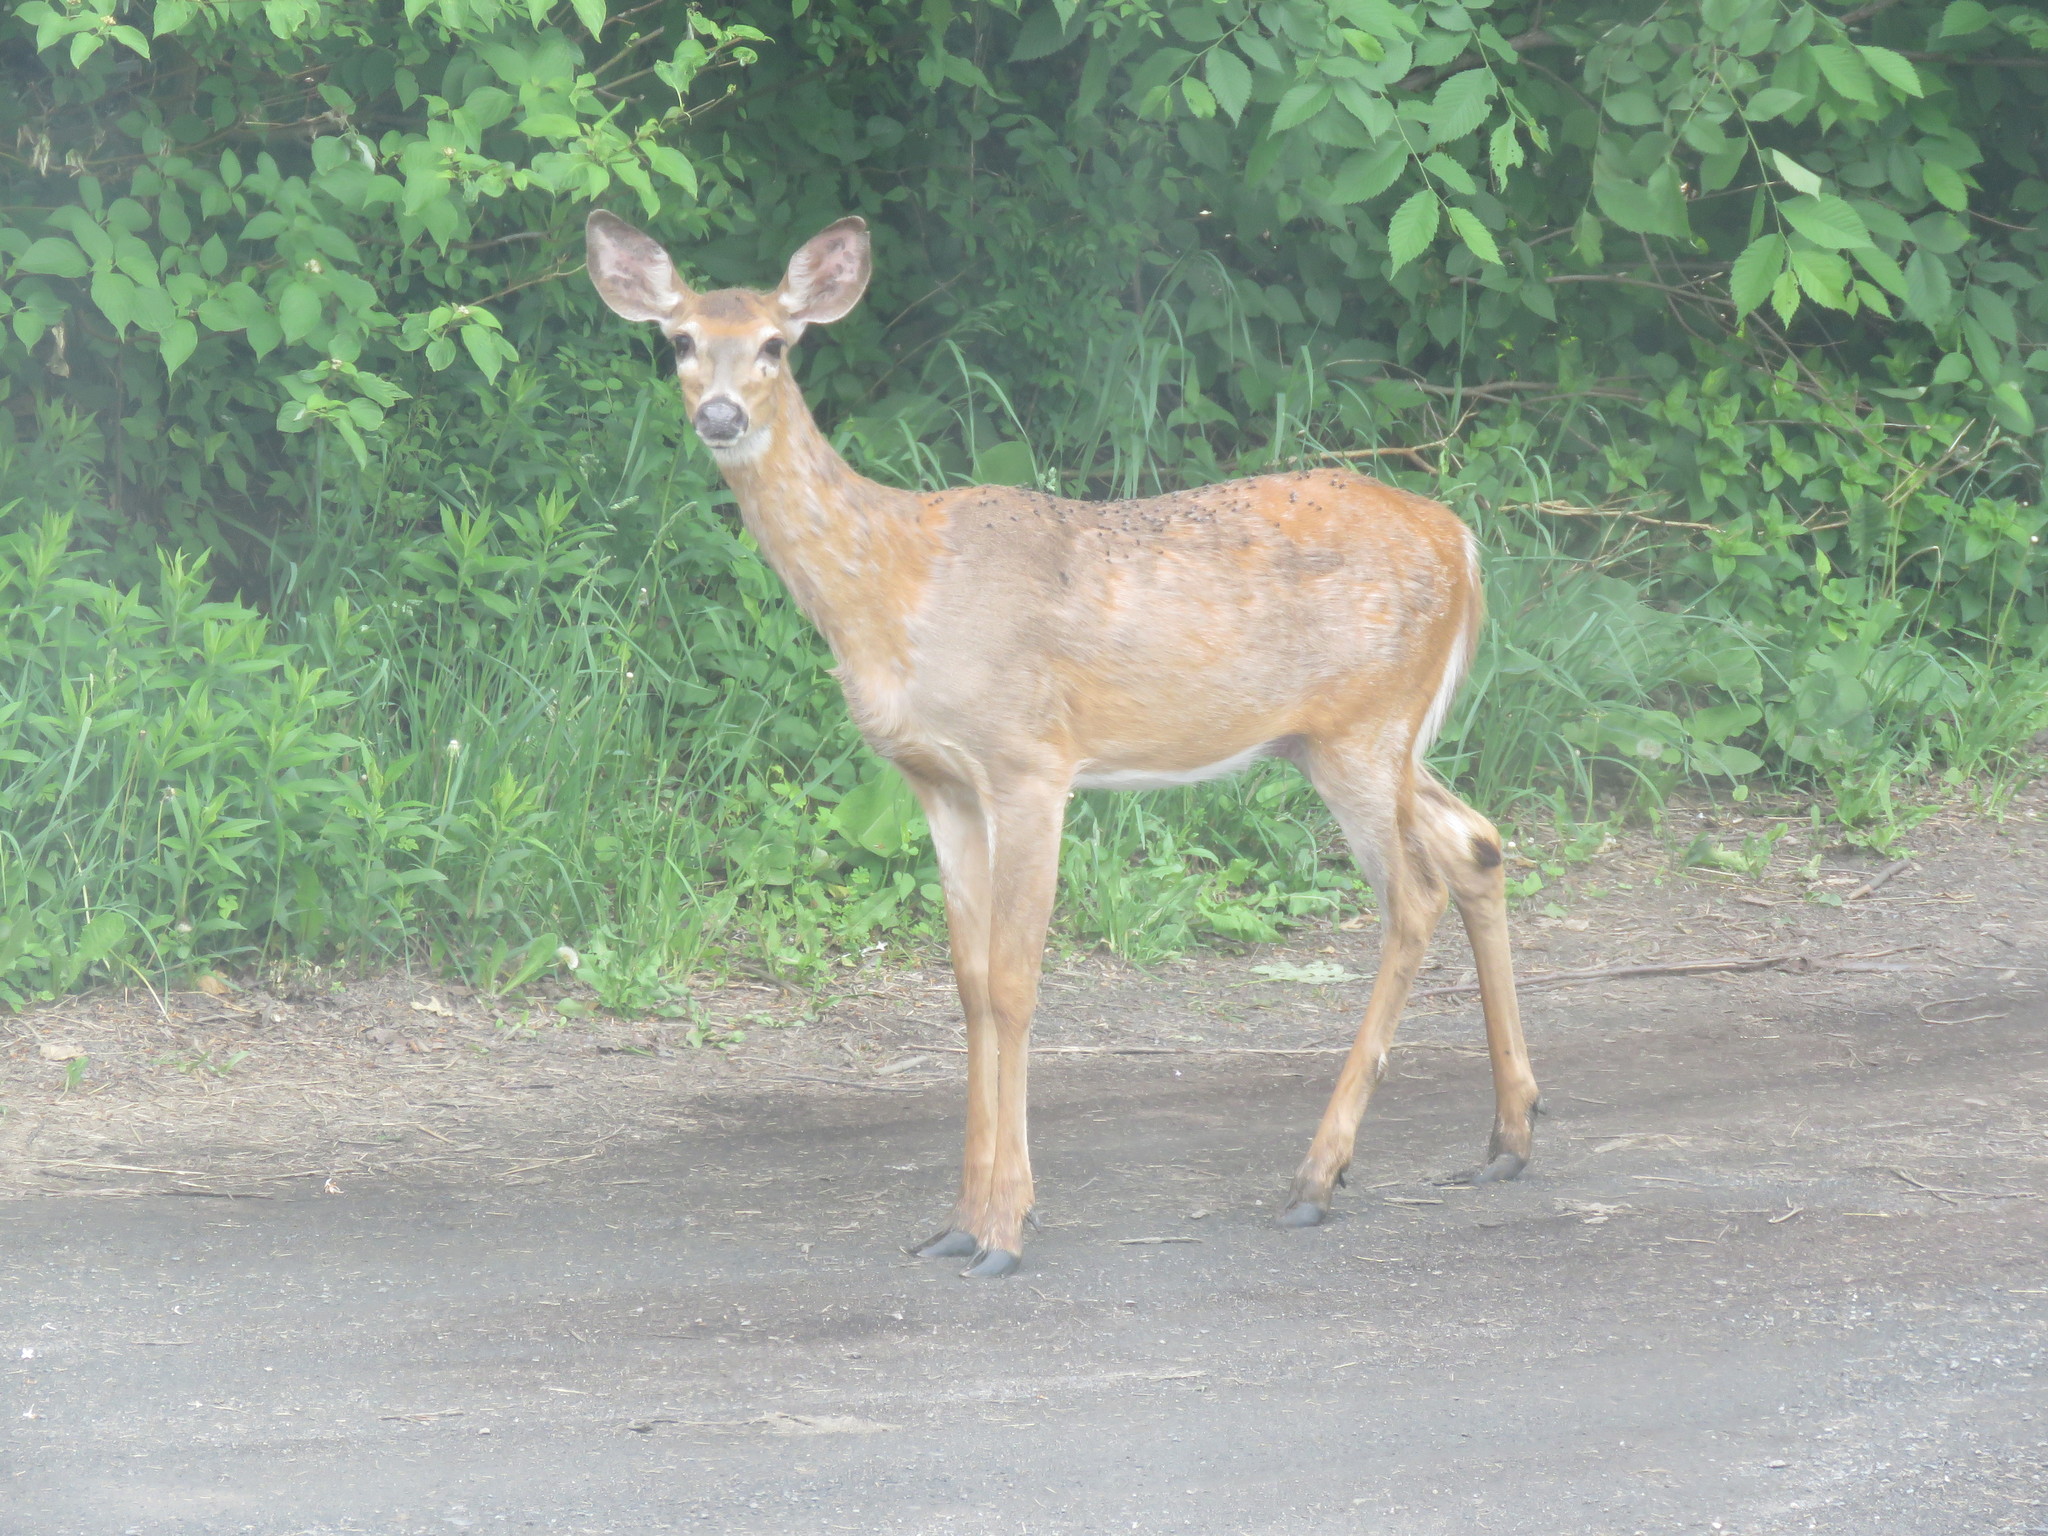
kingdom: Animalia
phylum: Chordata
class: Mammalia
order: Artiodactyla
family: Cervidae
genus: Odocoileus
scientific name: Odocoileus virginianus
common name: White-tailed deer
